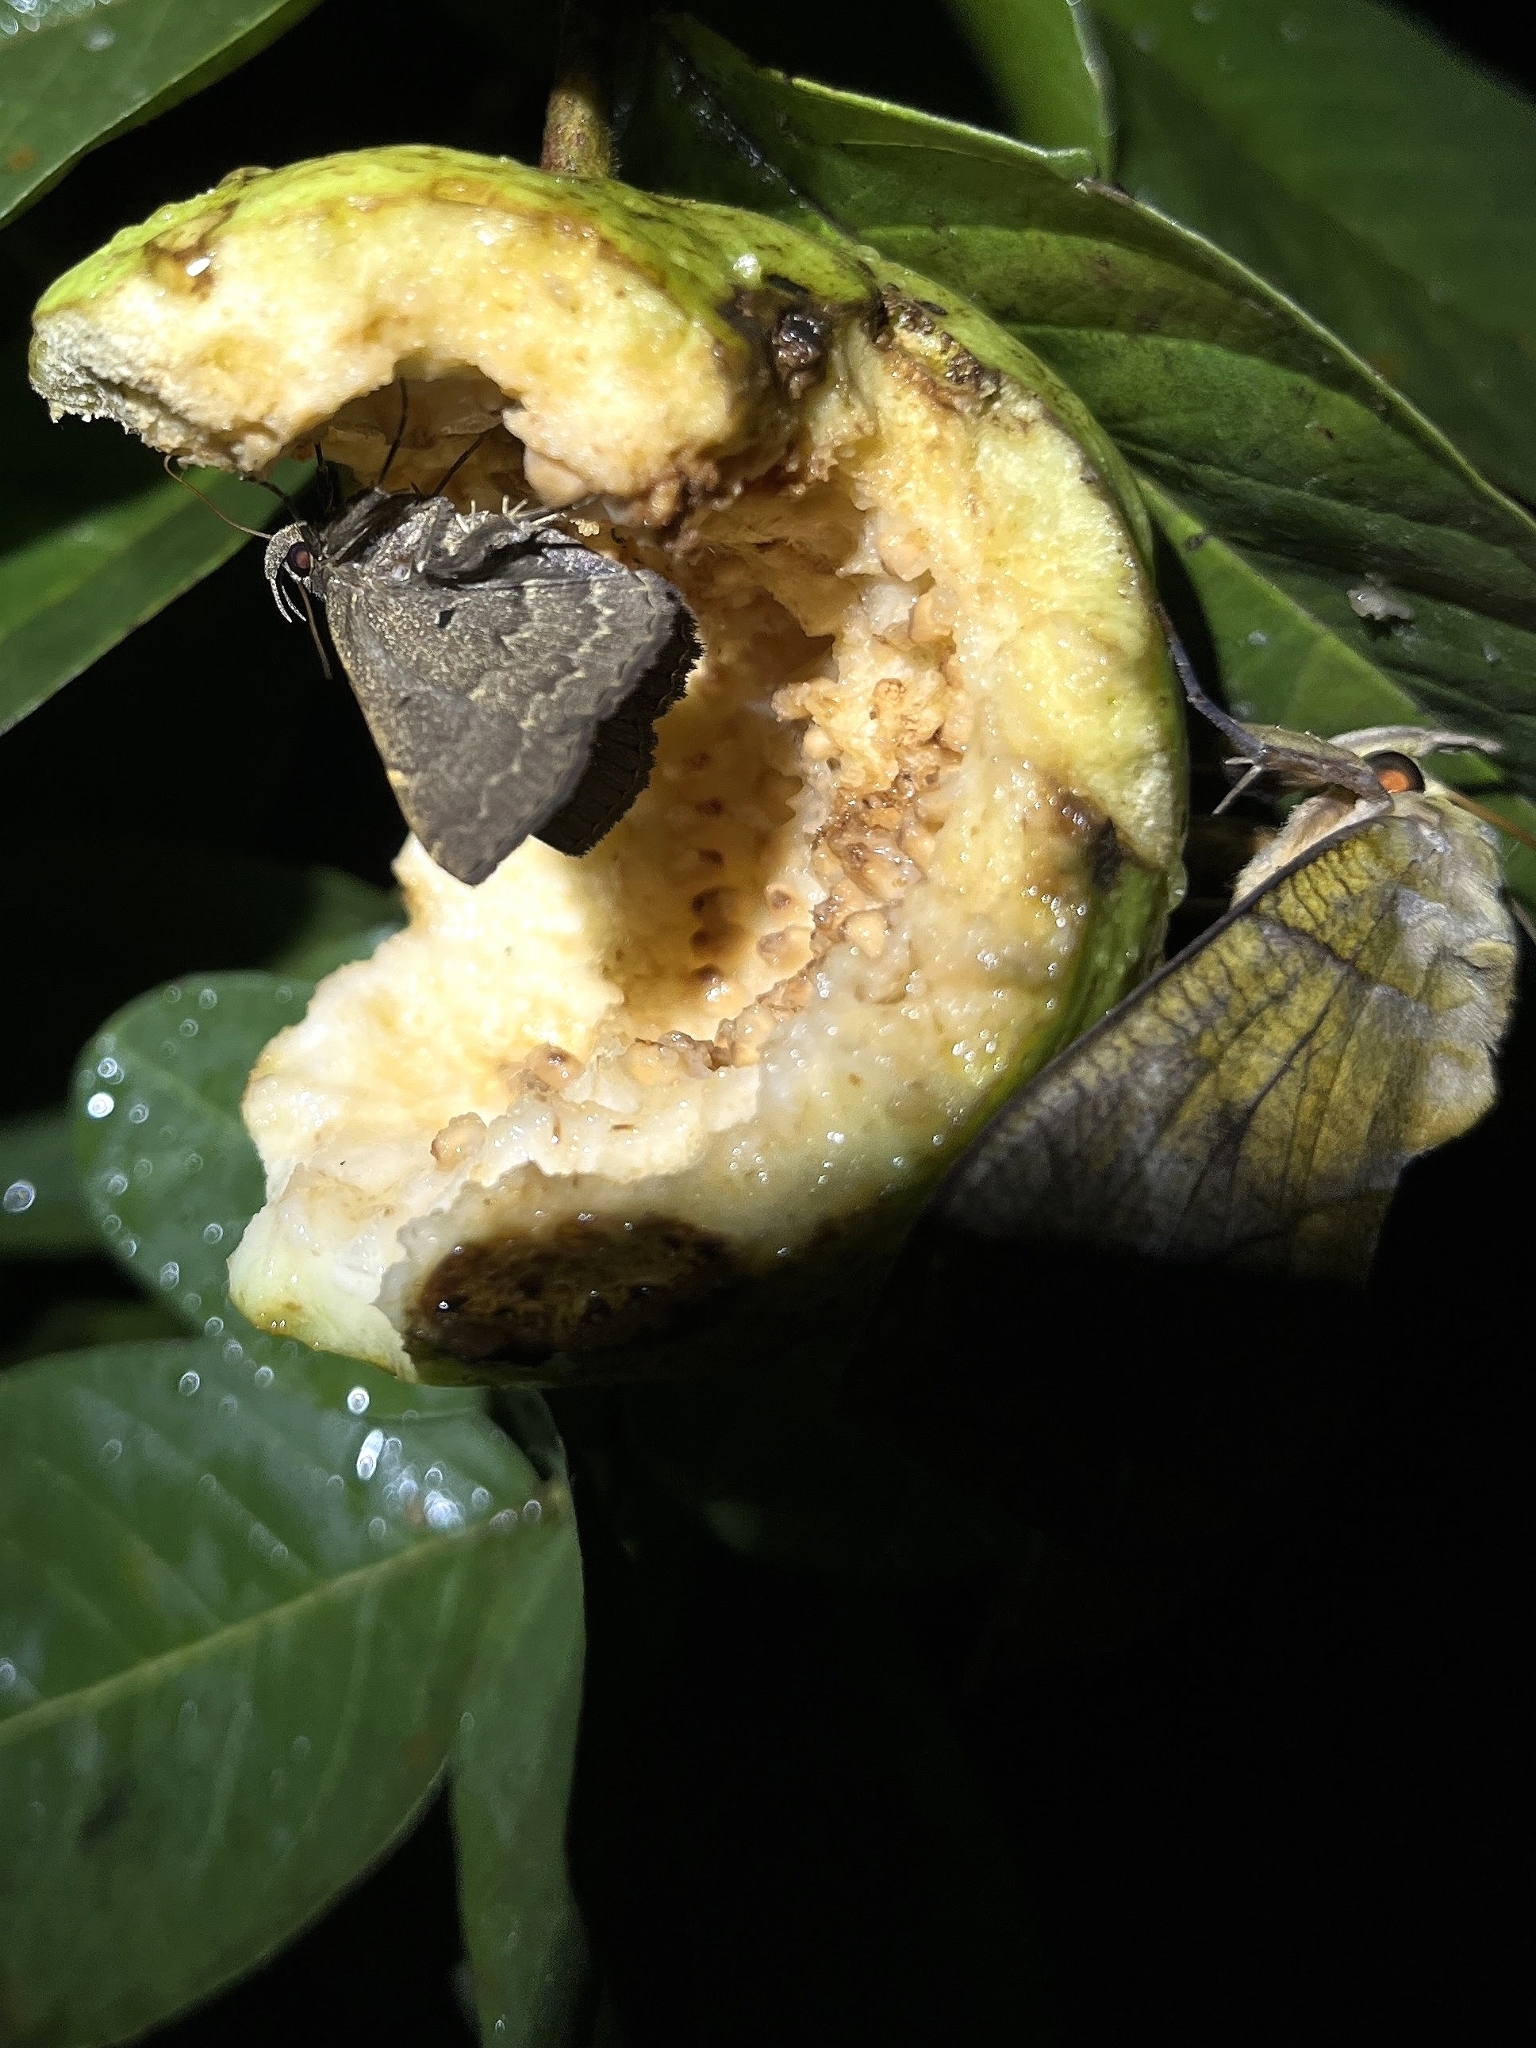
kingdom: Animalia
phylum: Arthropoda
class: Insecta
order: Lepidoptera
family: Erebidae
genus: Bocana
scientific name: Bocana manifestalis
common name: Moth
